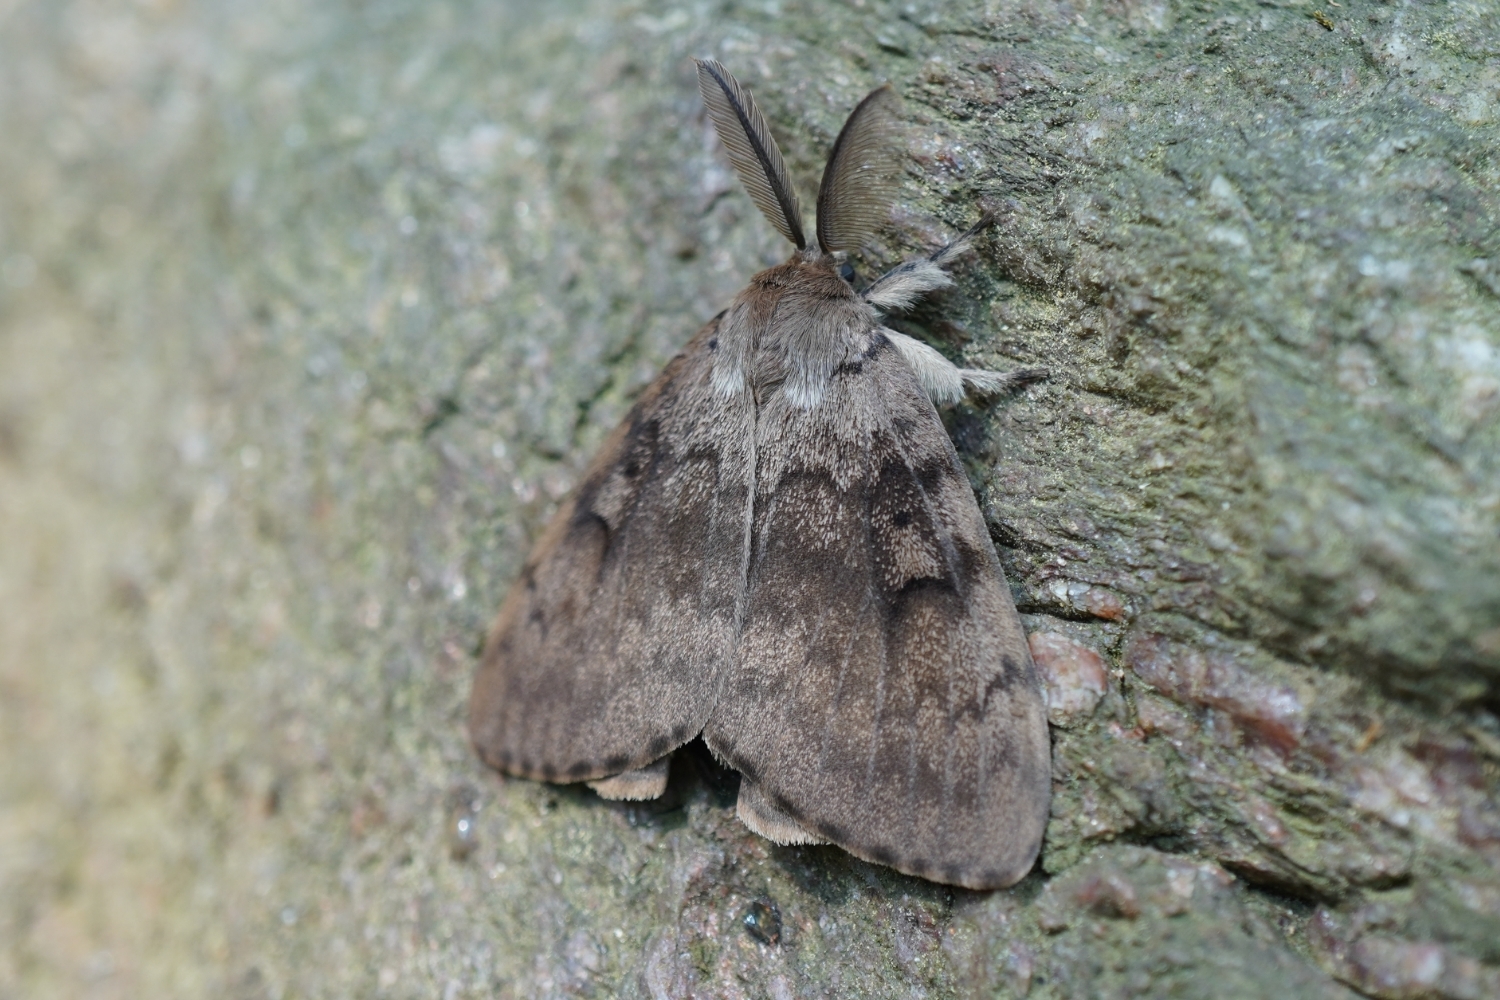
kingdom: Animalia
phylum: Arthropoda
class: Insecta
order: Lepidoptera
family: Erebidae
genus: Lymantria
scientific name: Lymantria dispar
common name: Gypsy moth
